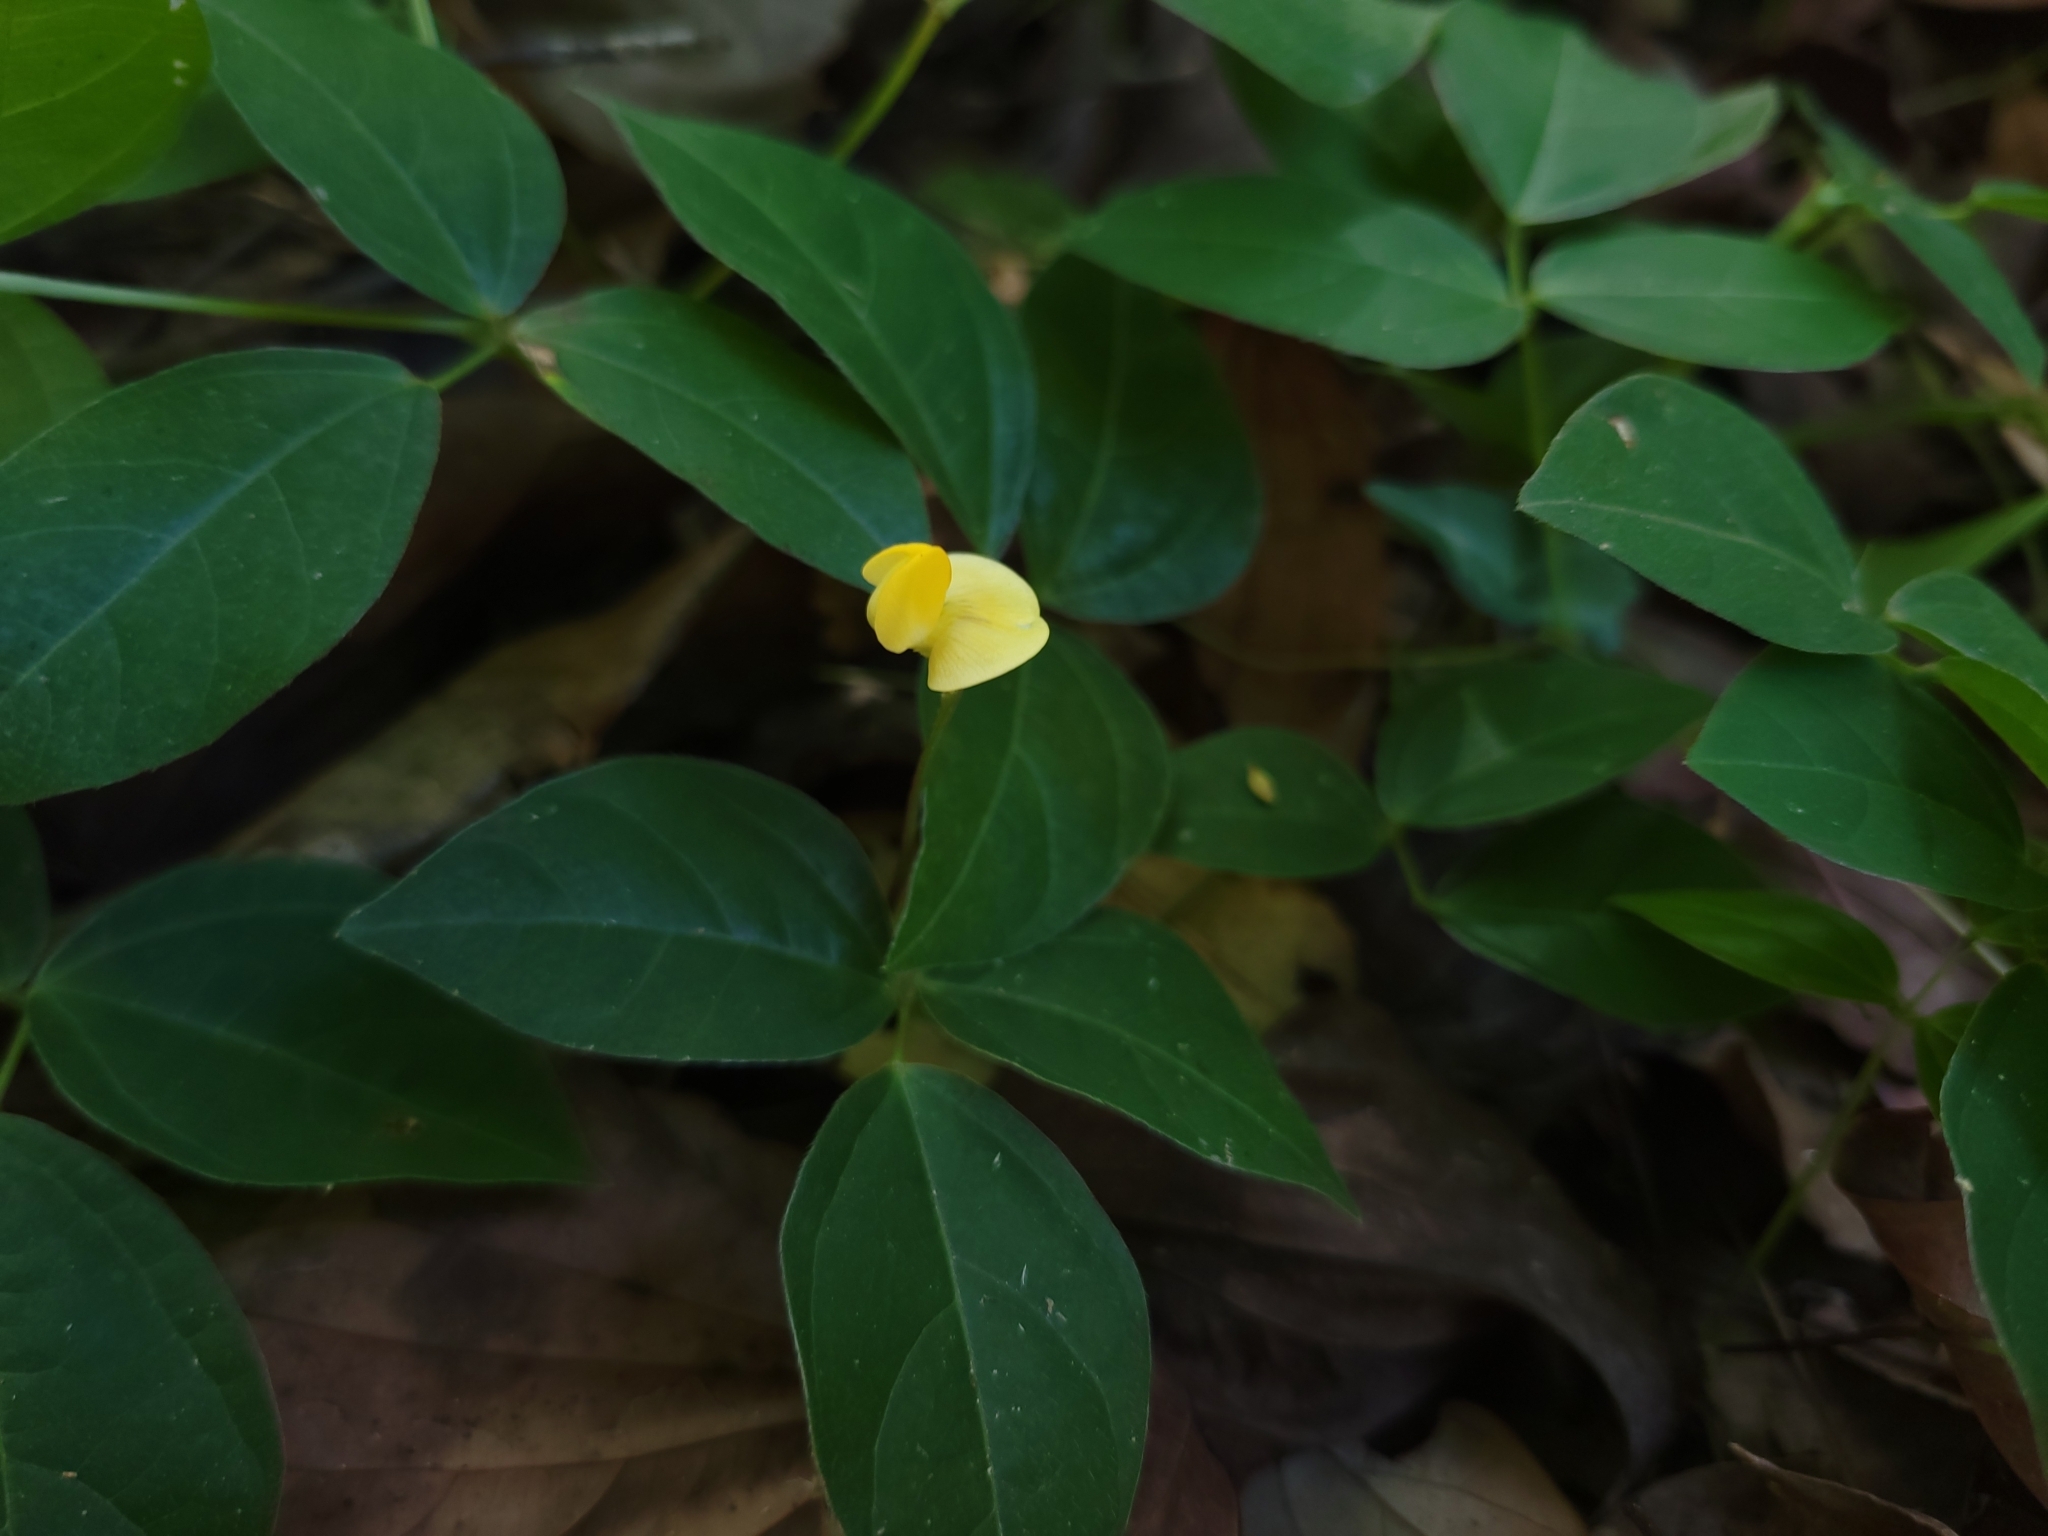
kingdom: Plantae
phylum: Tracheophyta
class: Magnoliopsida
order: Fabales
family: Fabaceae
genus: Vigna
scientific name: Vigna hosei
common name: Sarawak-bean
